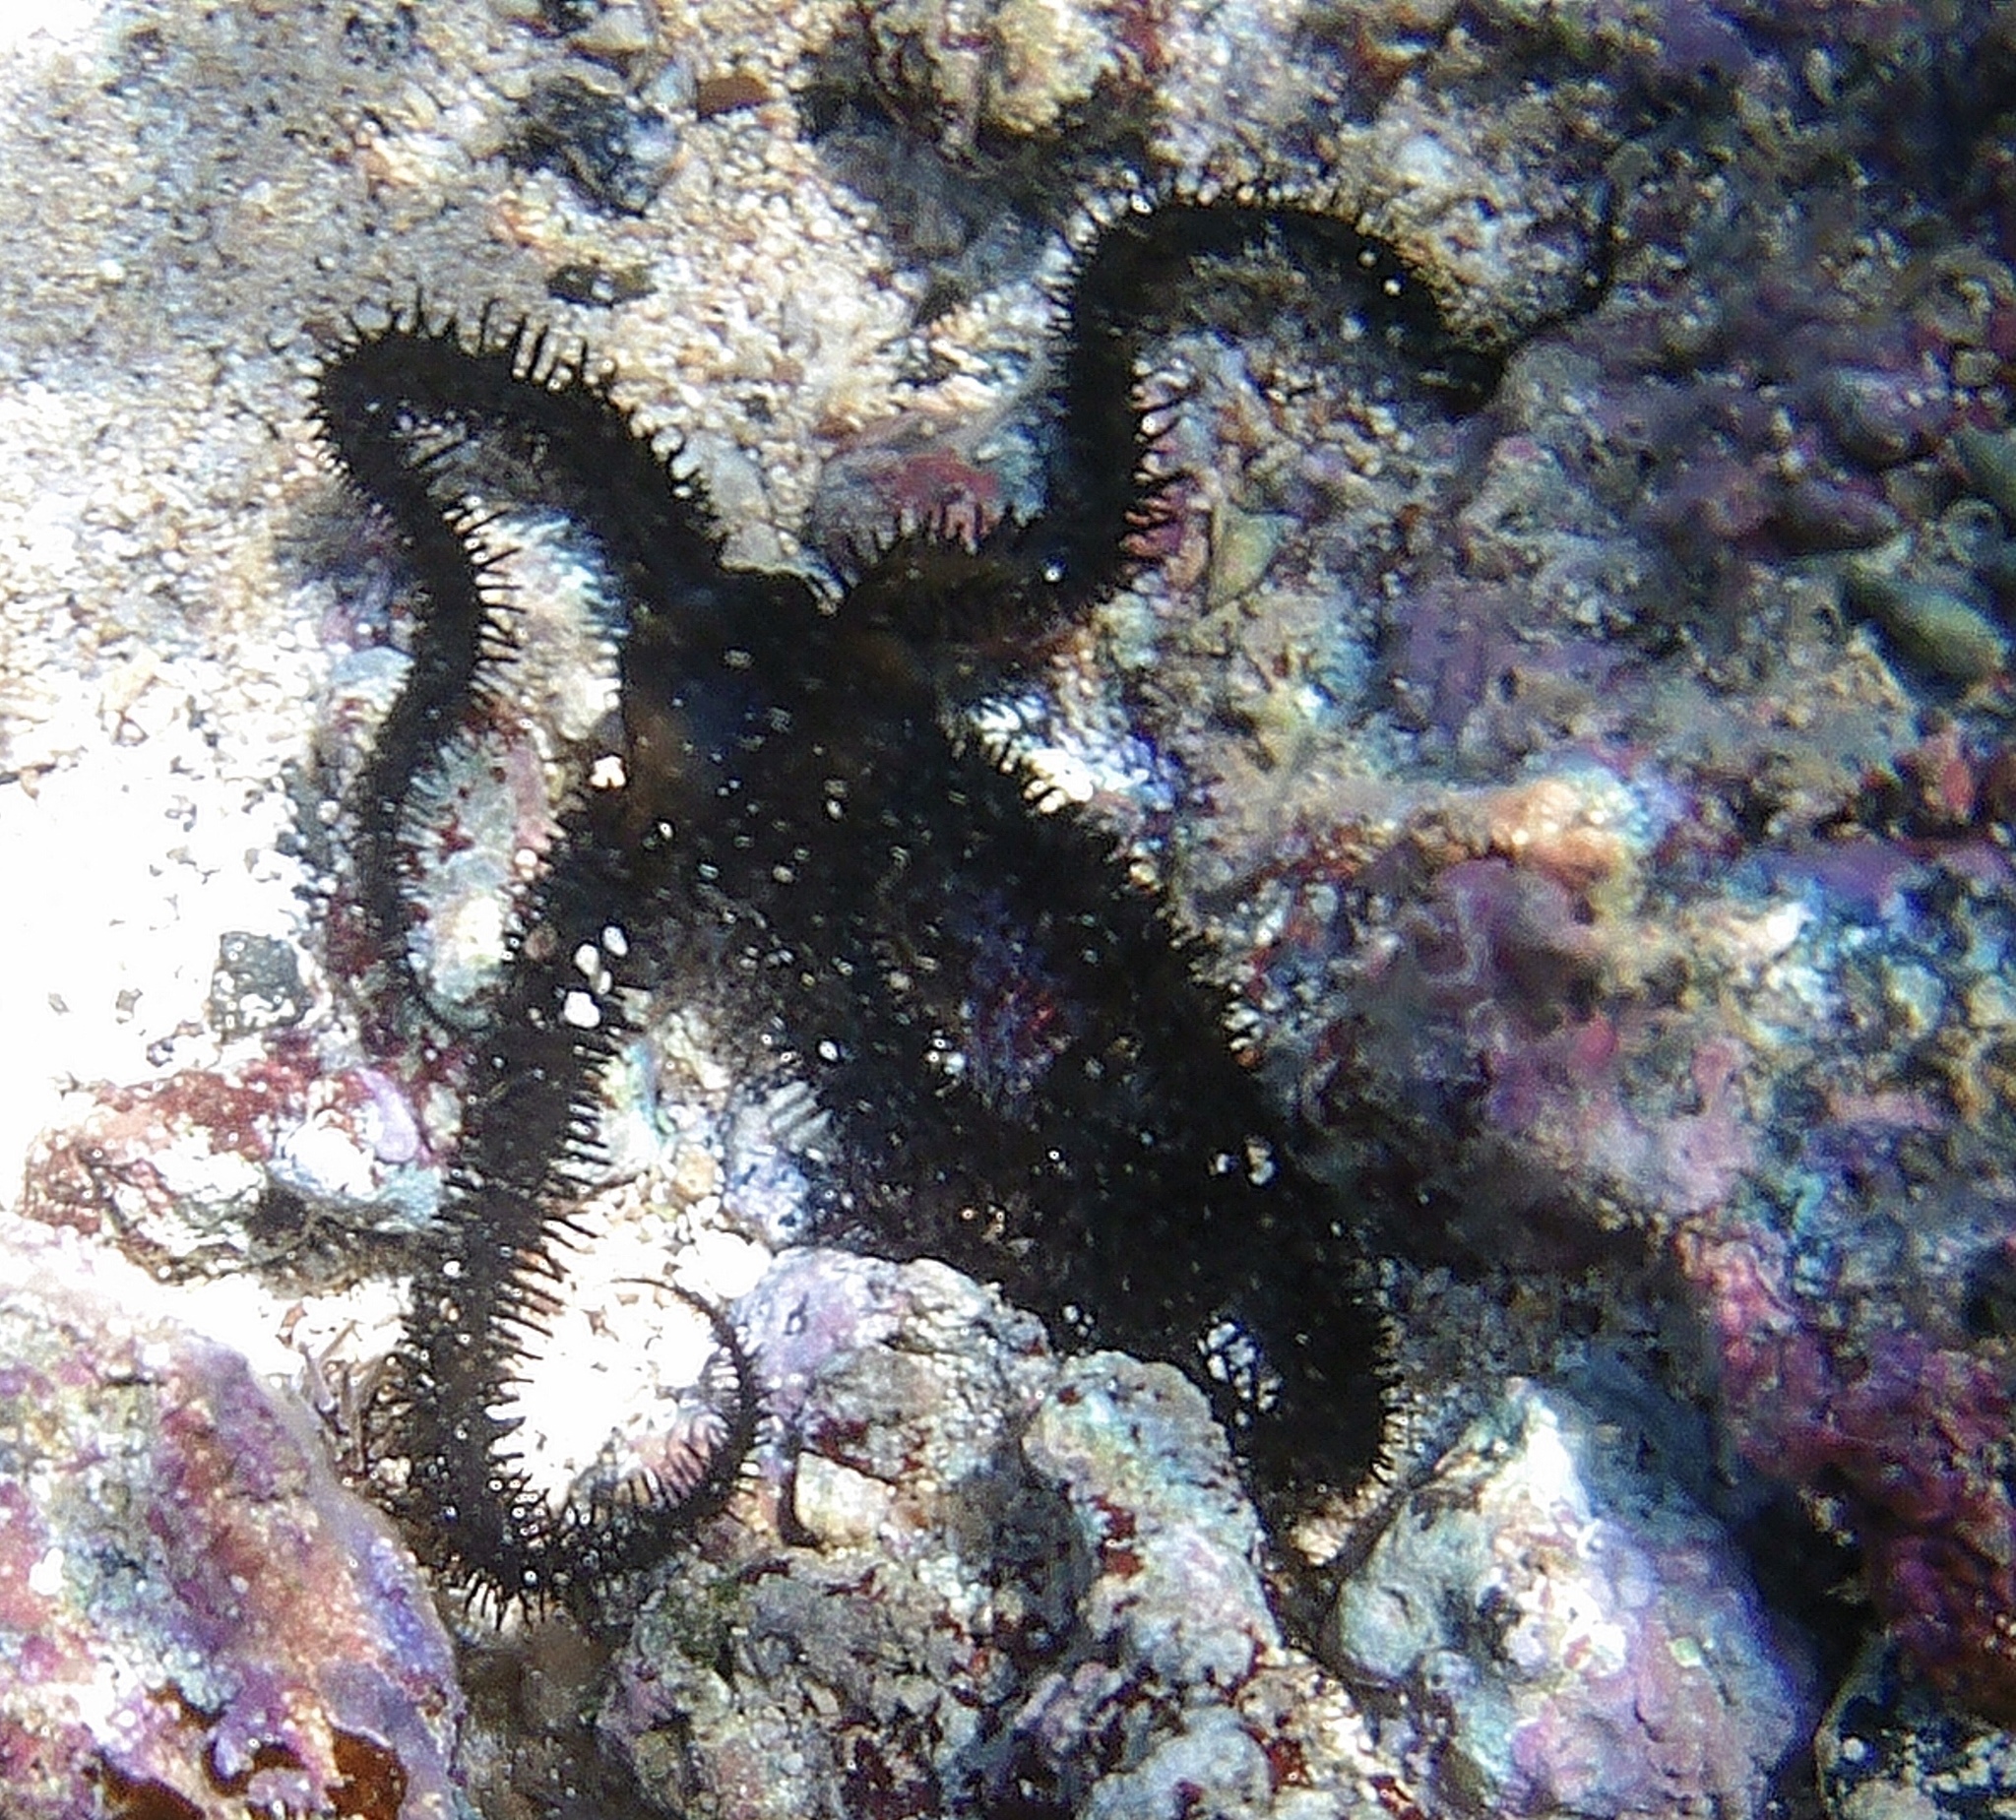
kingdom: Animalia
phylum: Echinodermata
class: Ophiuroidea
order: Ophiacanthida
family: Ophiocomidae
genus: Ophiocoma
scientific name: Ophiocoma erinaceus
